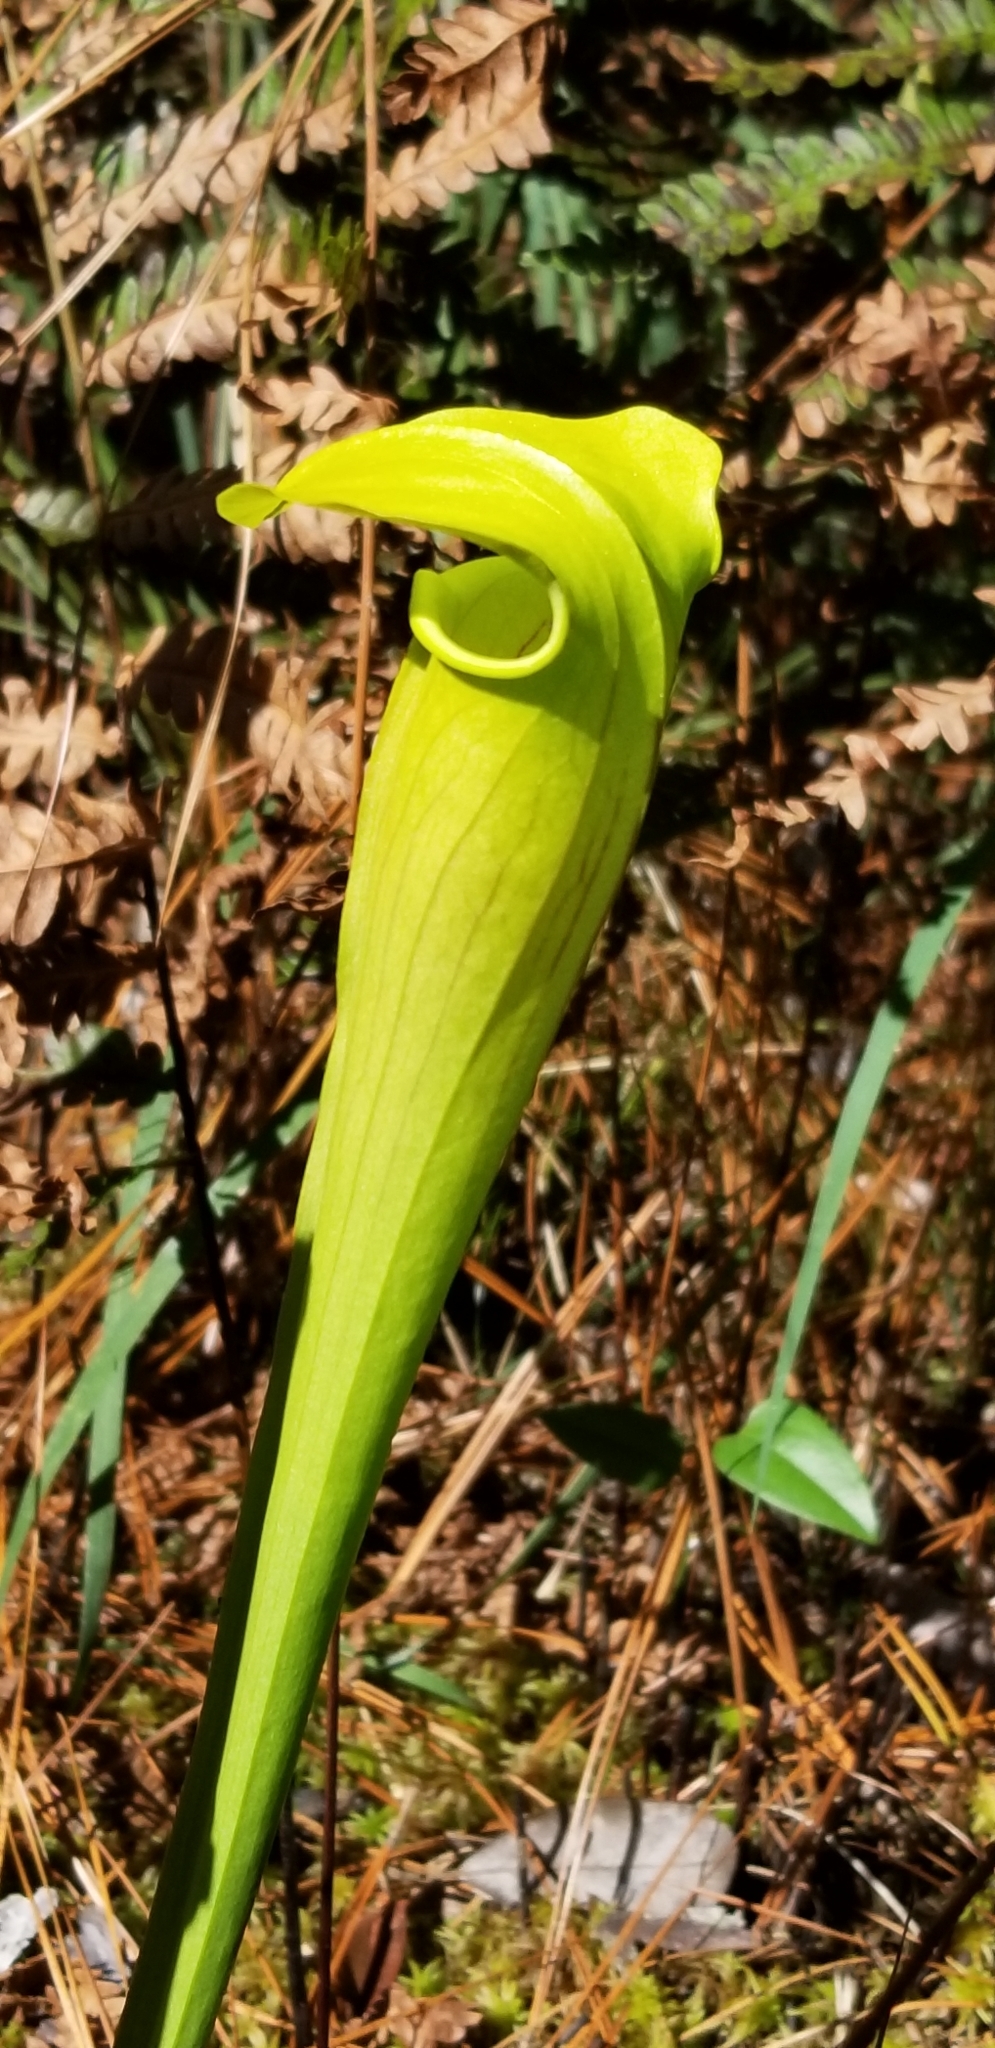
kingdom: Plantae
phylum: Tracheophyta
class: Magnoliopsida
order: Ericales
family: Sarraceniaceae
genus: Sarracenia
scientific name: Sarracenia alata
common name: Yellow trumpets
